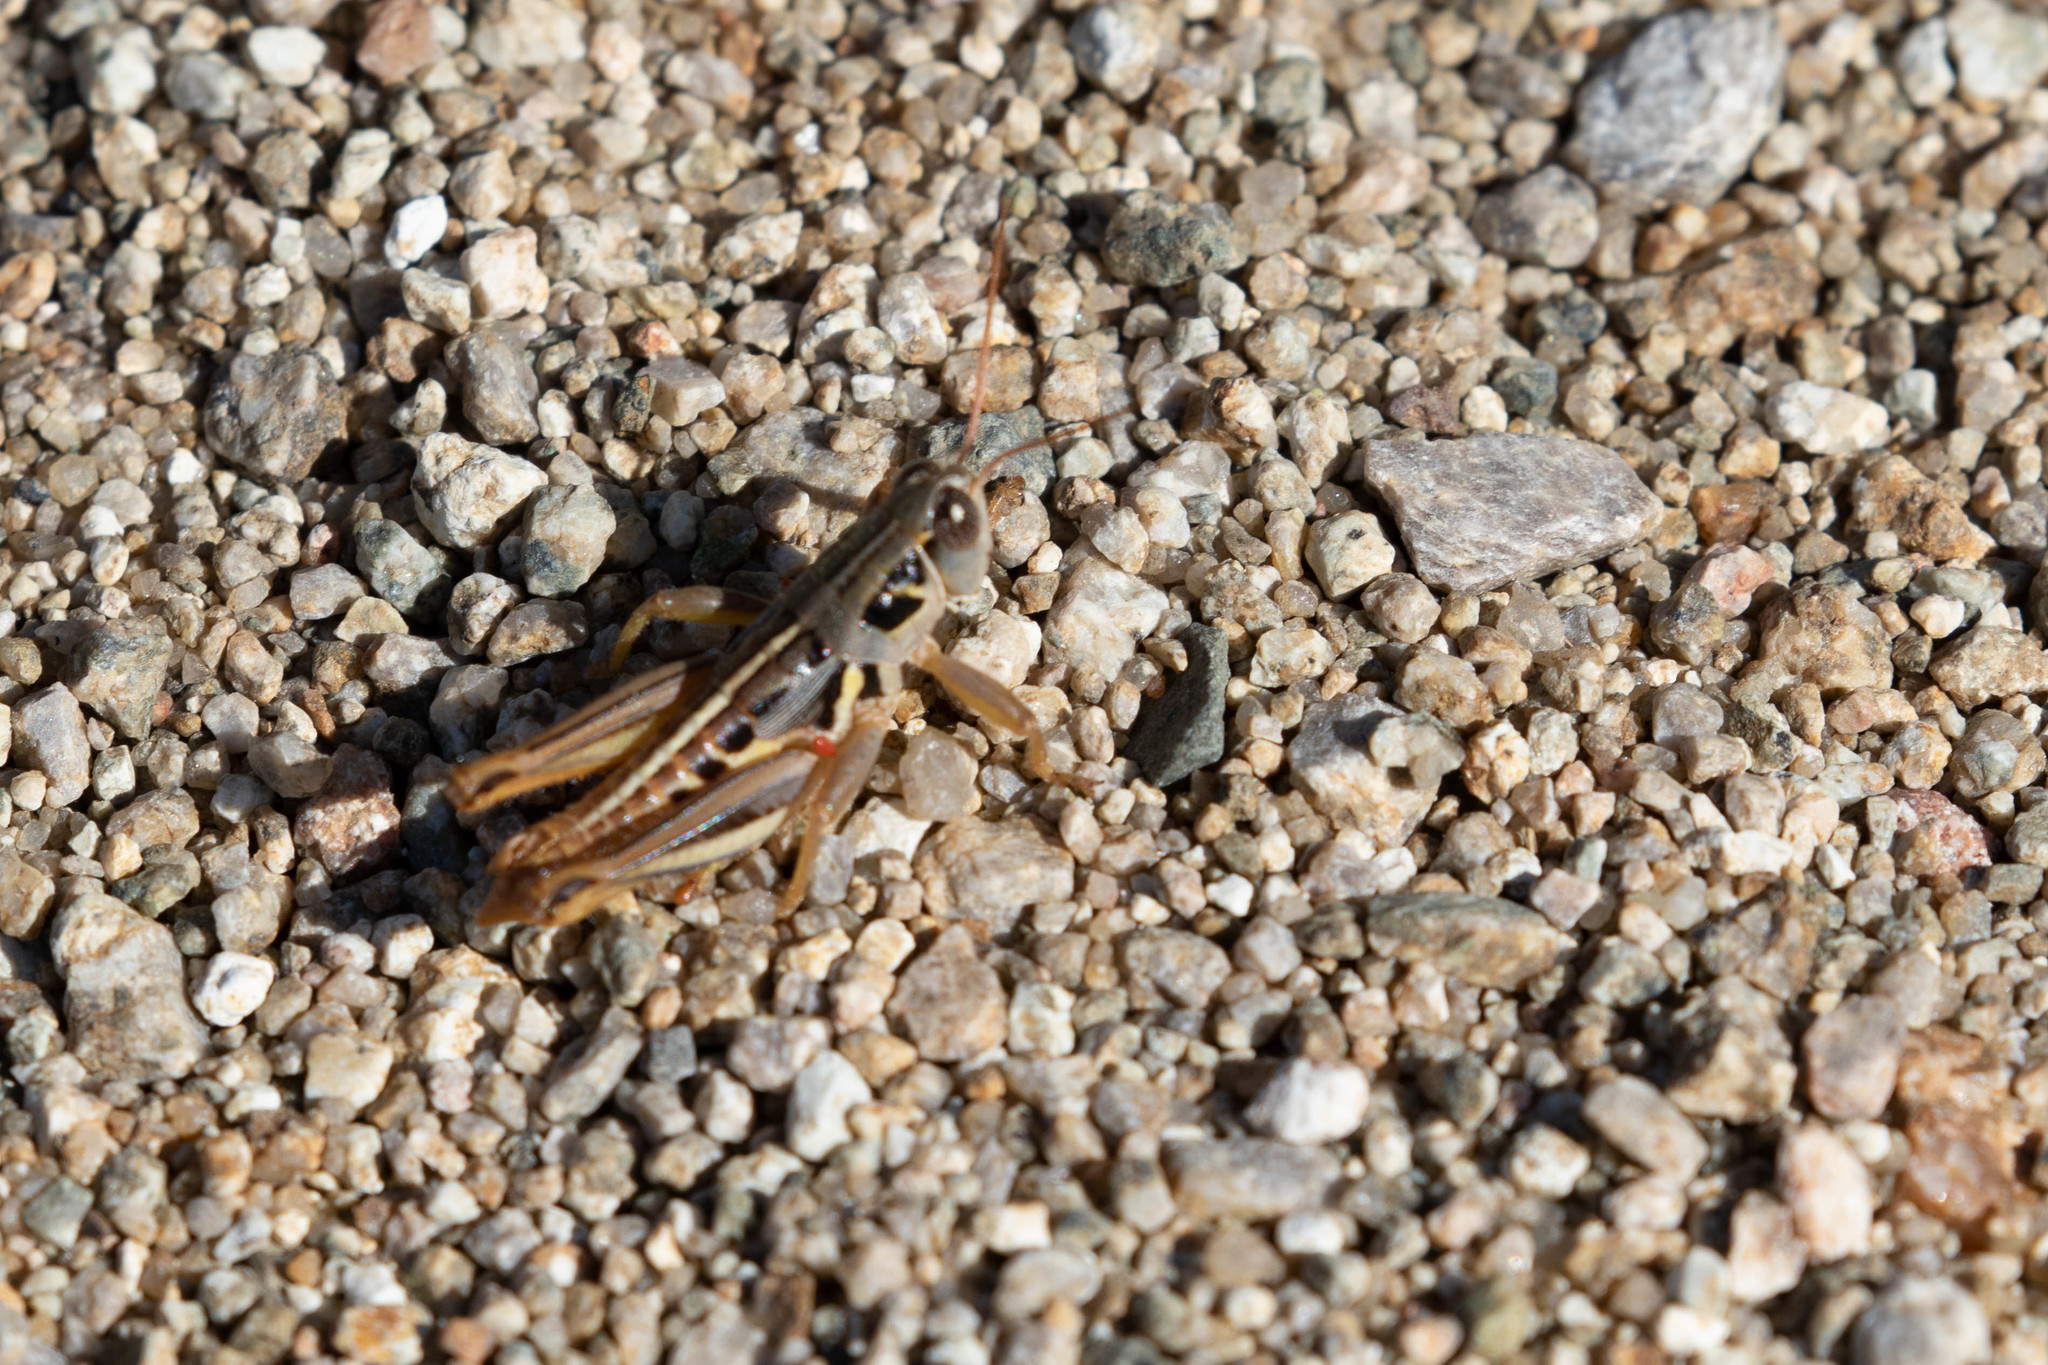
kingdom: Animalia
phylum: Arthropoda
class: Insecta
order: Orthoptera
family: Acrididae
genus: Barytettix
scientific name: Barytettix humphreysii
